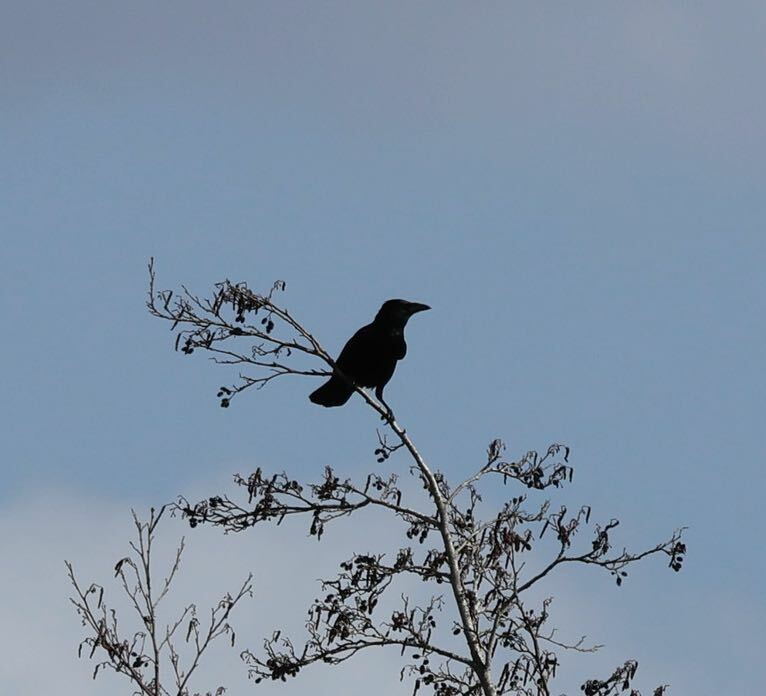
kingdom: Animalia
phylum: Chordata
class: Aves
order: Passeriformes
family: Corvidae
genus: Corvus
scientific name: Corvus corone
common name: Carrion crow
